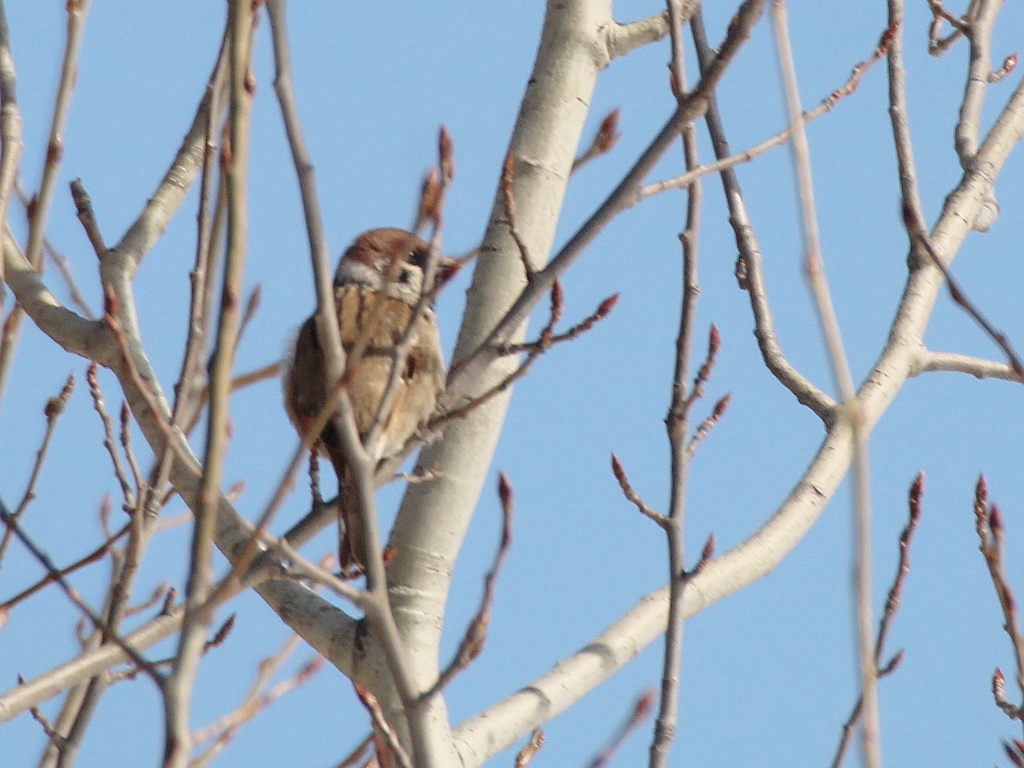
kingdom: Animalia
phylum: Chordata
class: Aves
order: Passeriformes
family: Passeridae
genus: Passer
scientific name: Passer montanus
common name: Eurasian tree sparrow
